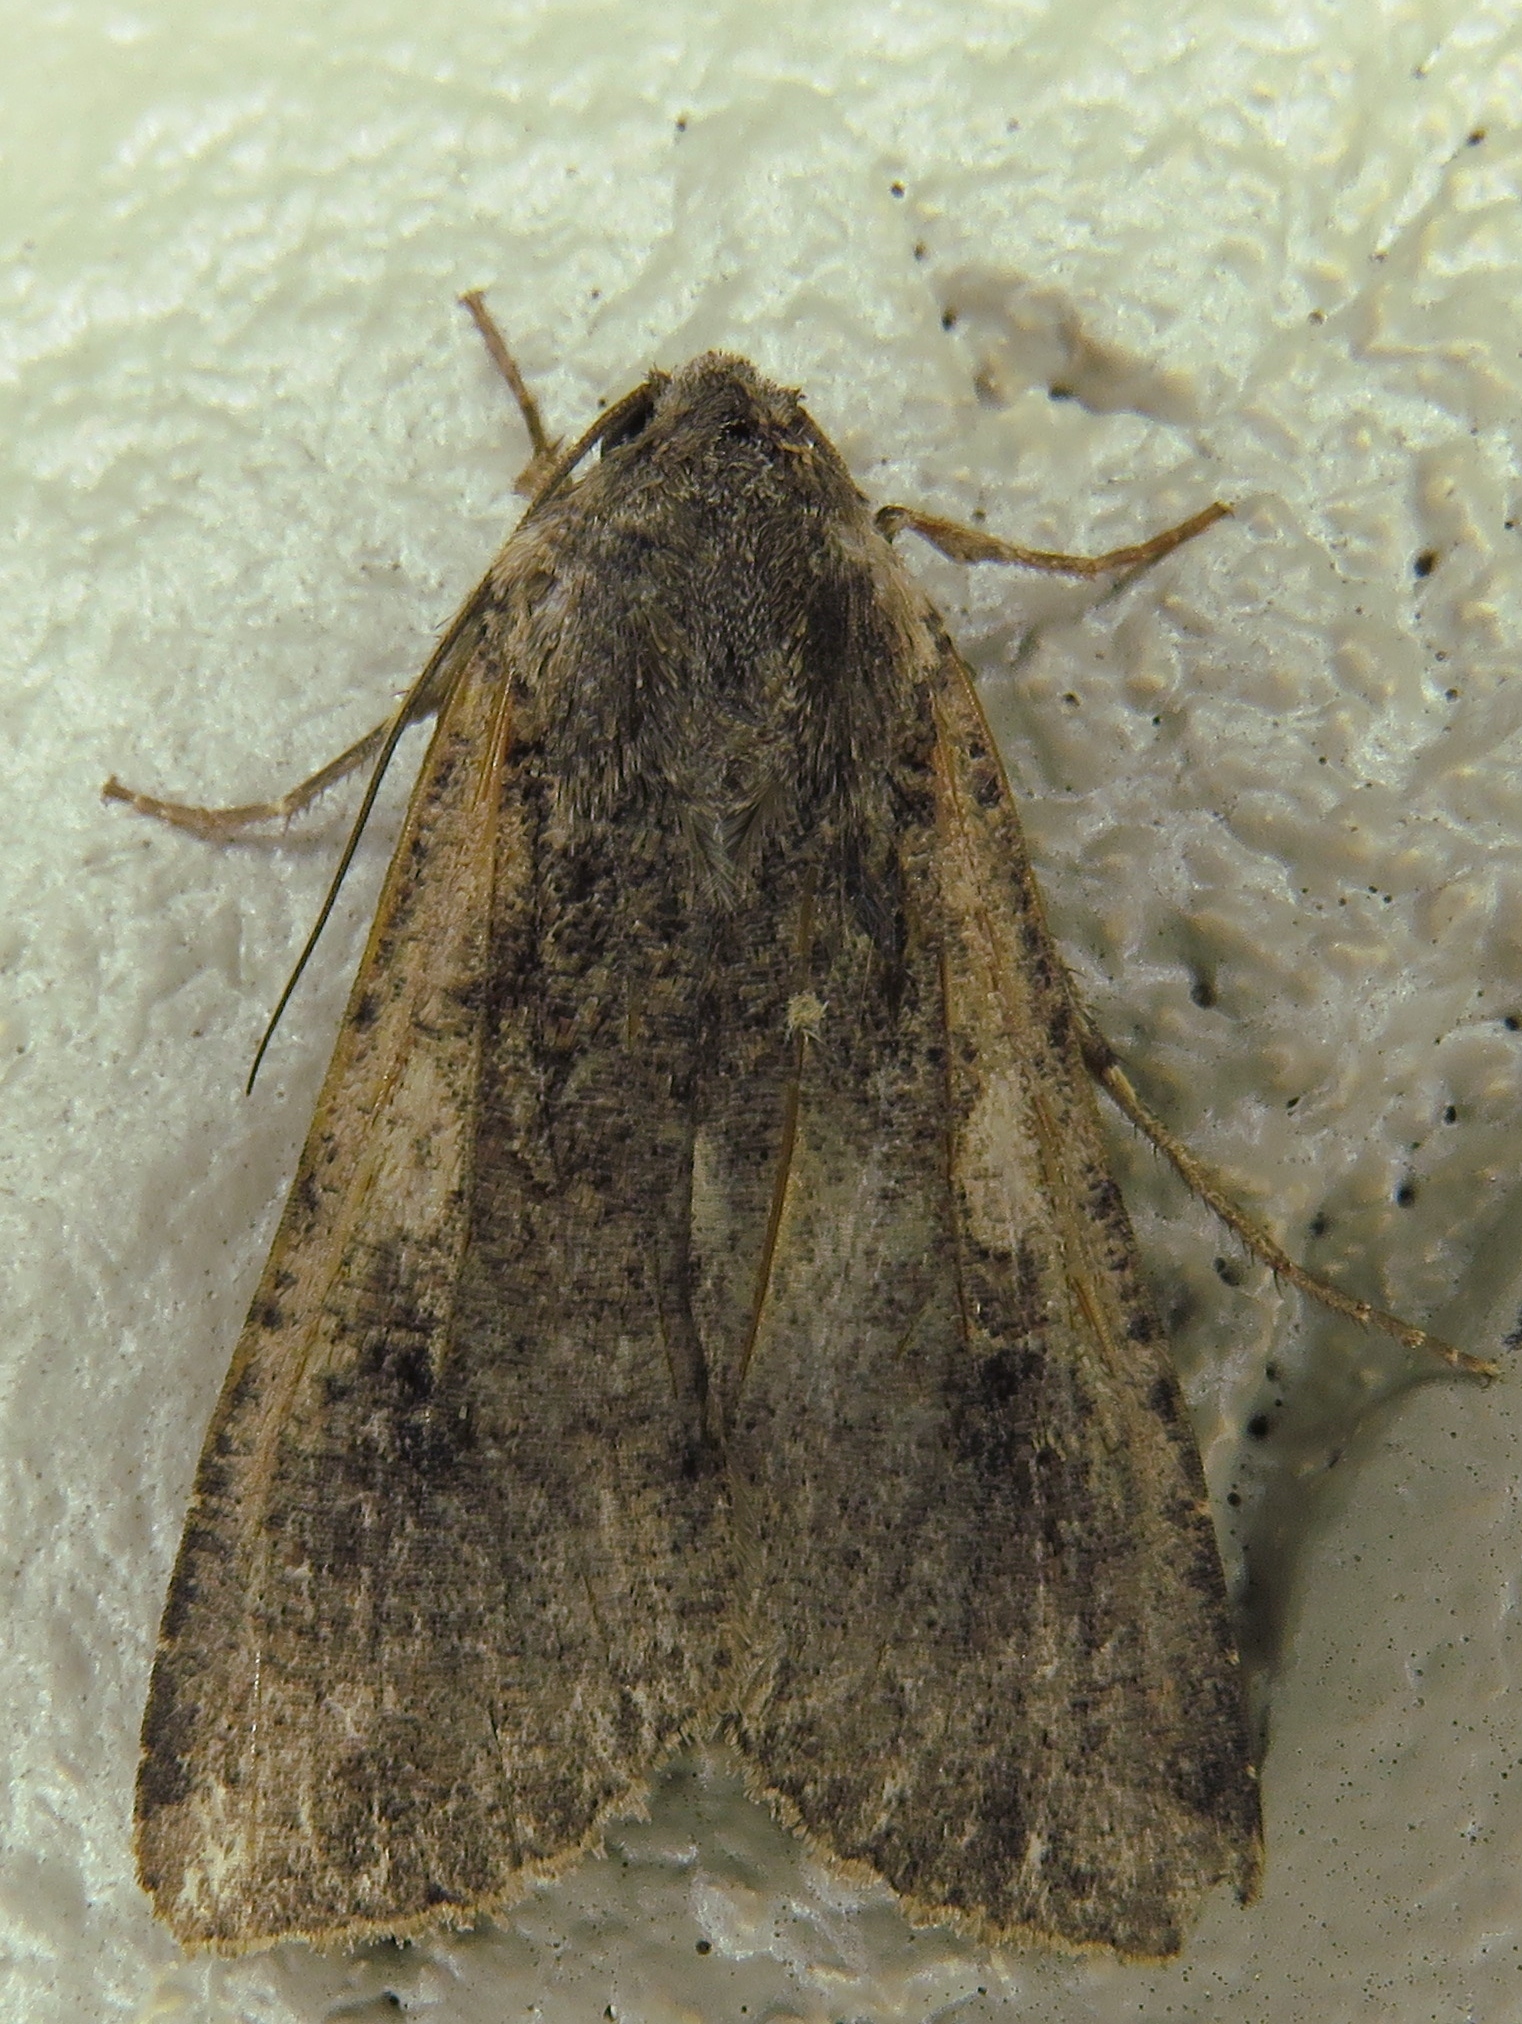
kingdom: Animalia
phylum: Arthropoda
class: Insecta
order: Lepidoptera
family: Noctuidae
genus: Peridroma
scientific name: Peridroma saucia
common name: Pearly underwing
